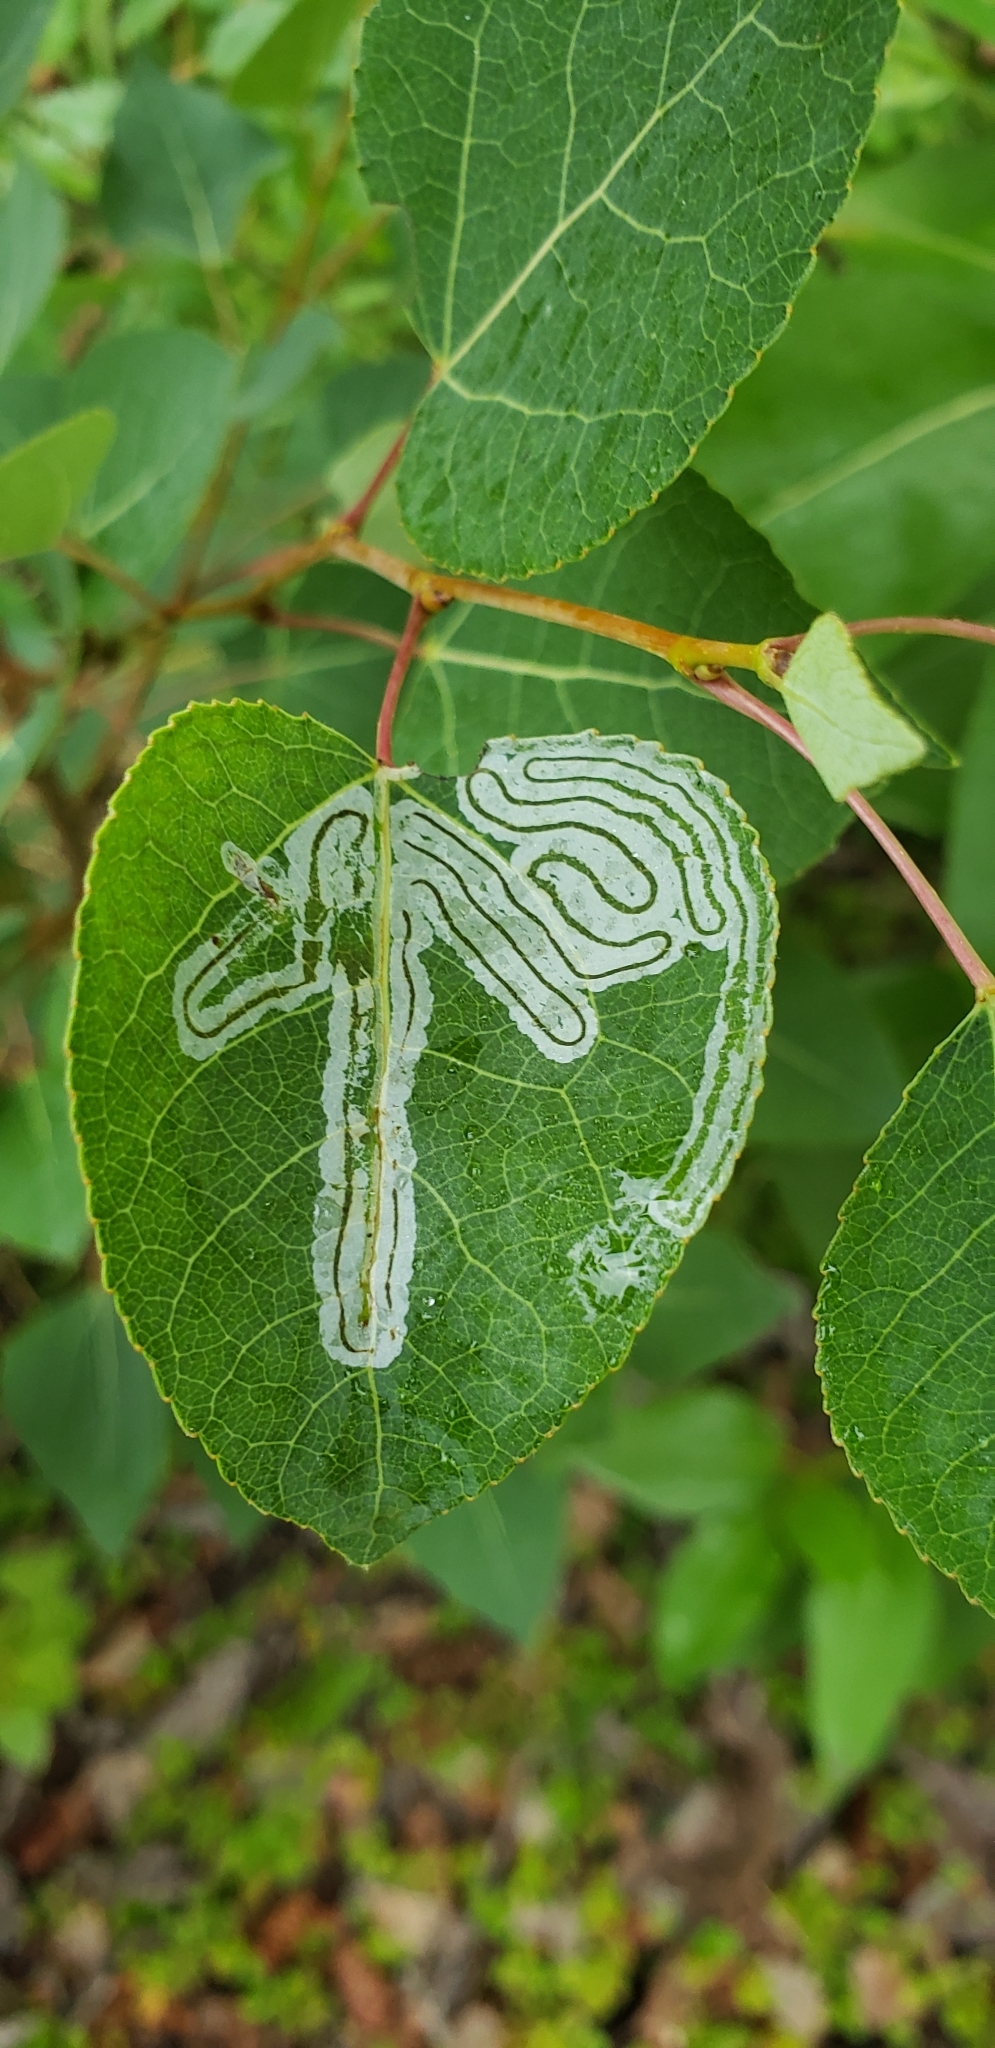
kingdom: Animalia
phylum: Arthropoda
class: Insecta
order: Lepidoptera
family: Gracillariidae
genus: Phyllocnistis
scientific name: Phyllocnistis populiella
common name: Aspen serpentine leafminer moth
